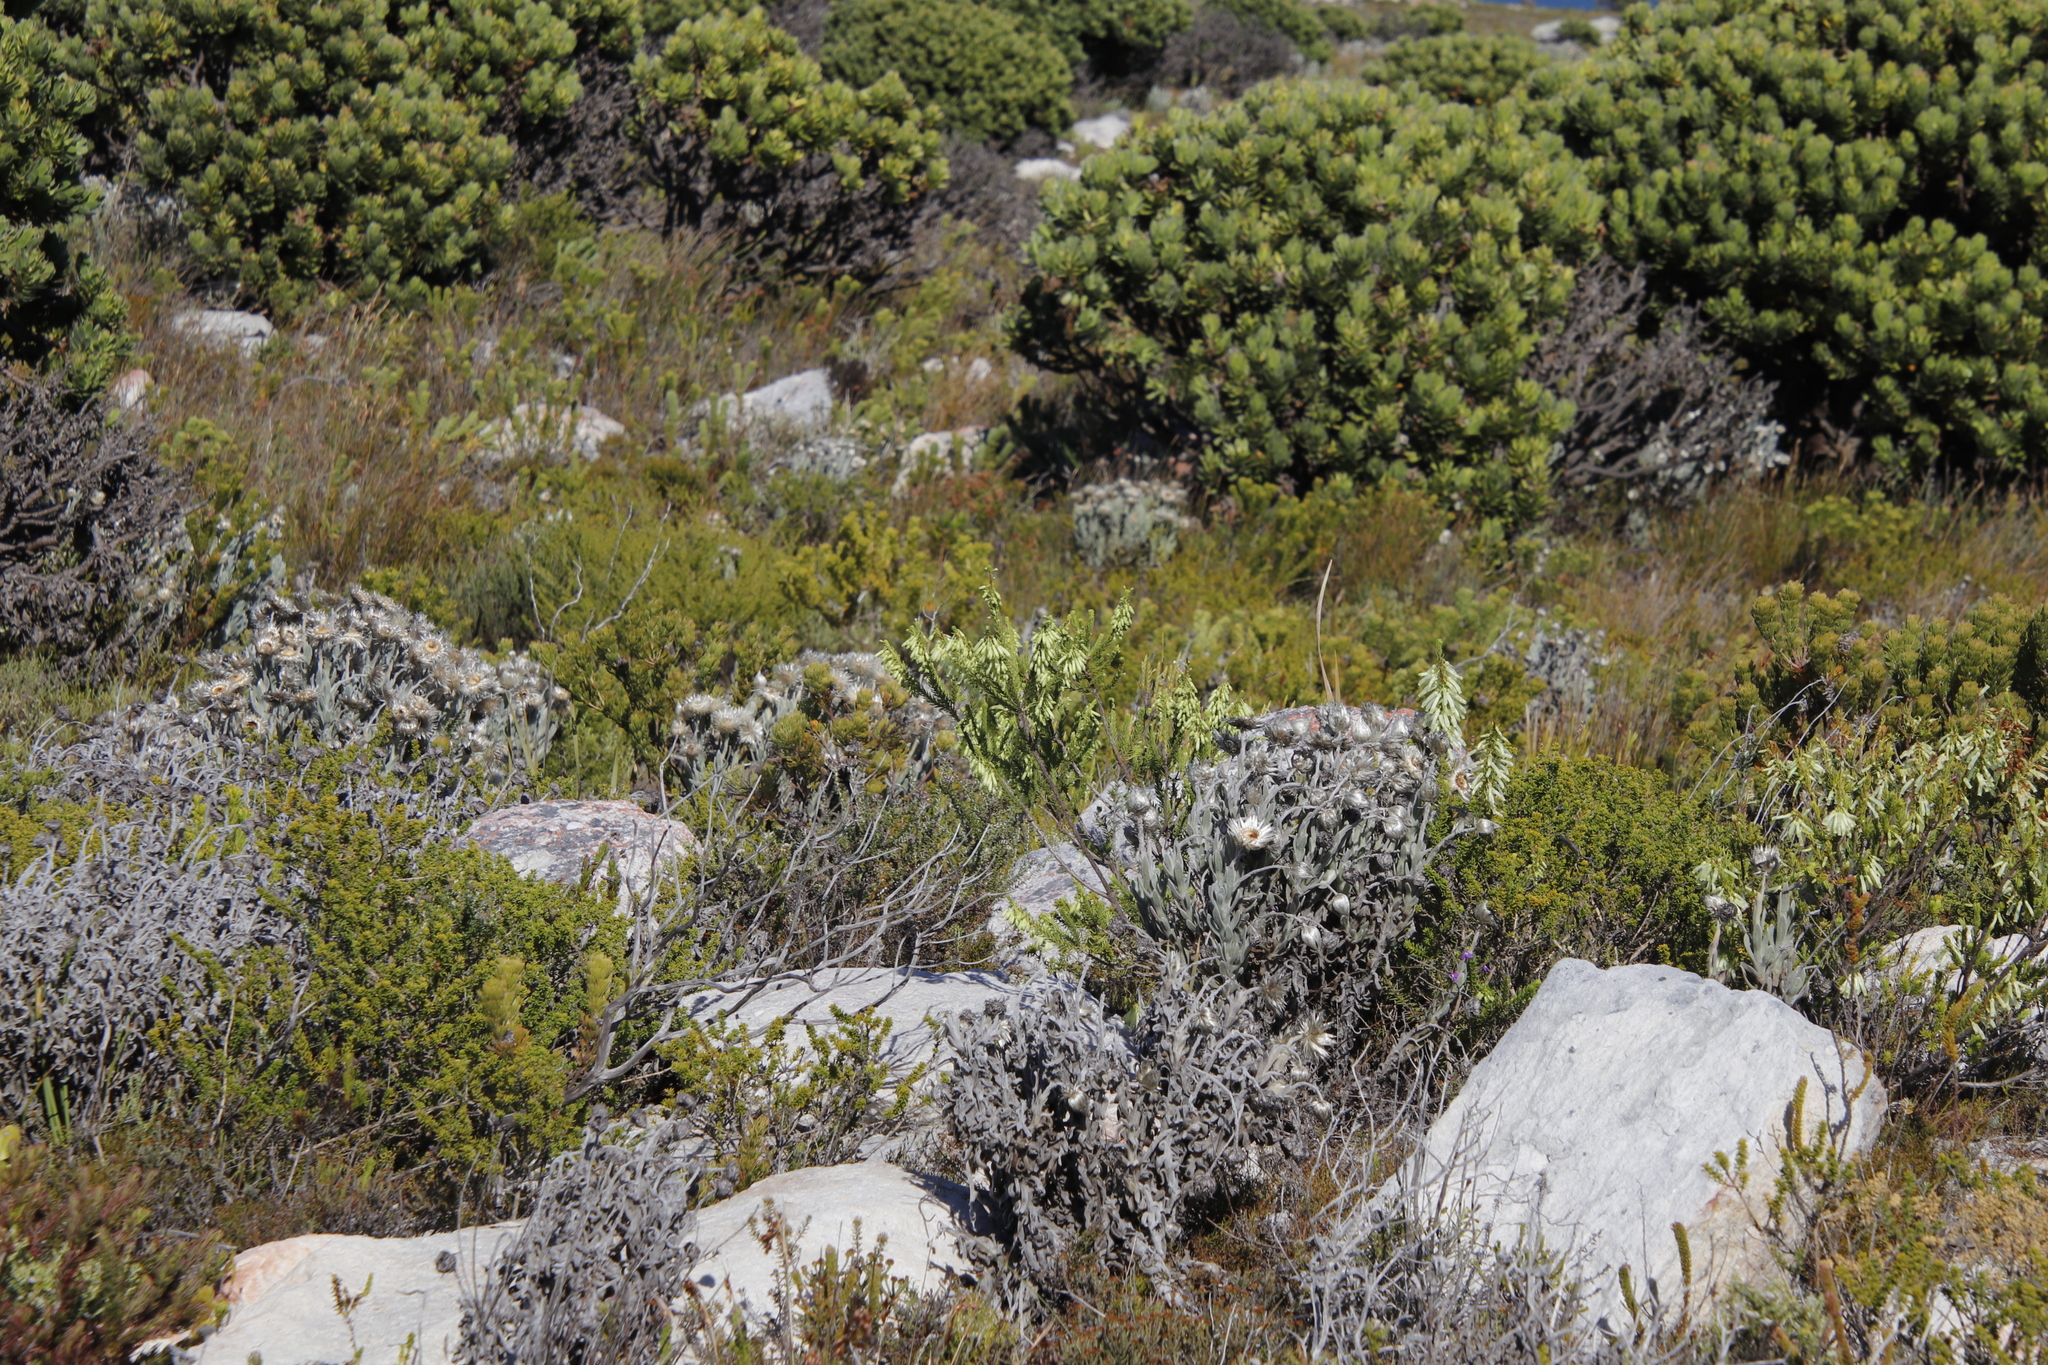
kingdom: Plantae
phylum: Tracheophyta
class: Magnoliopsida
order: Ericales
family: Ericaceae
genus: Erica
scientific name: Erica mammosa
